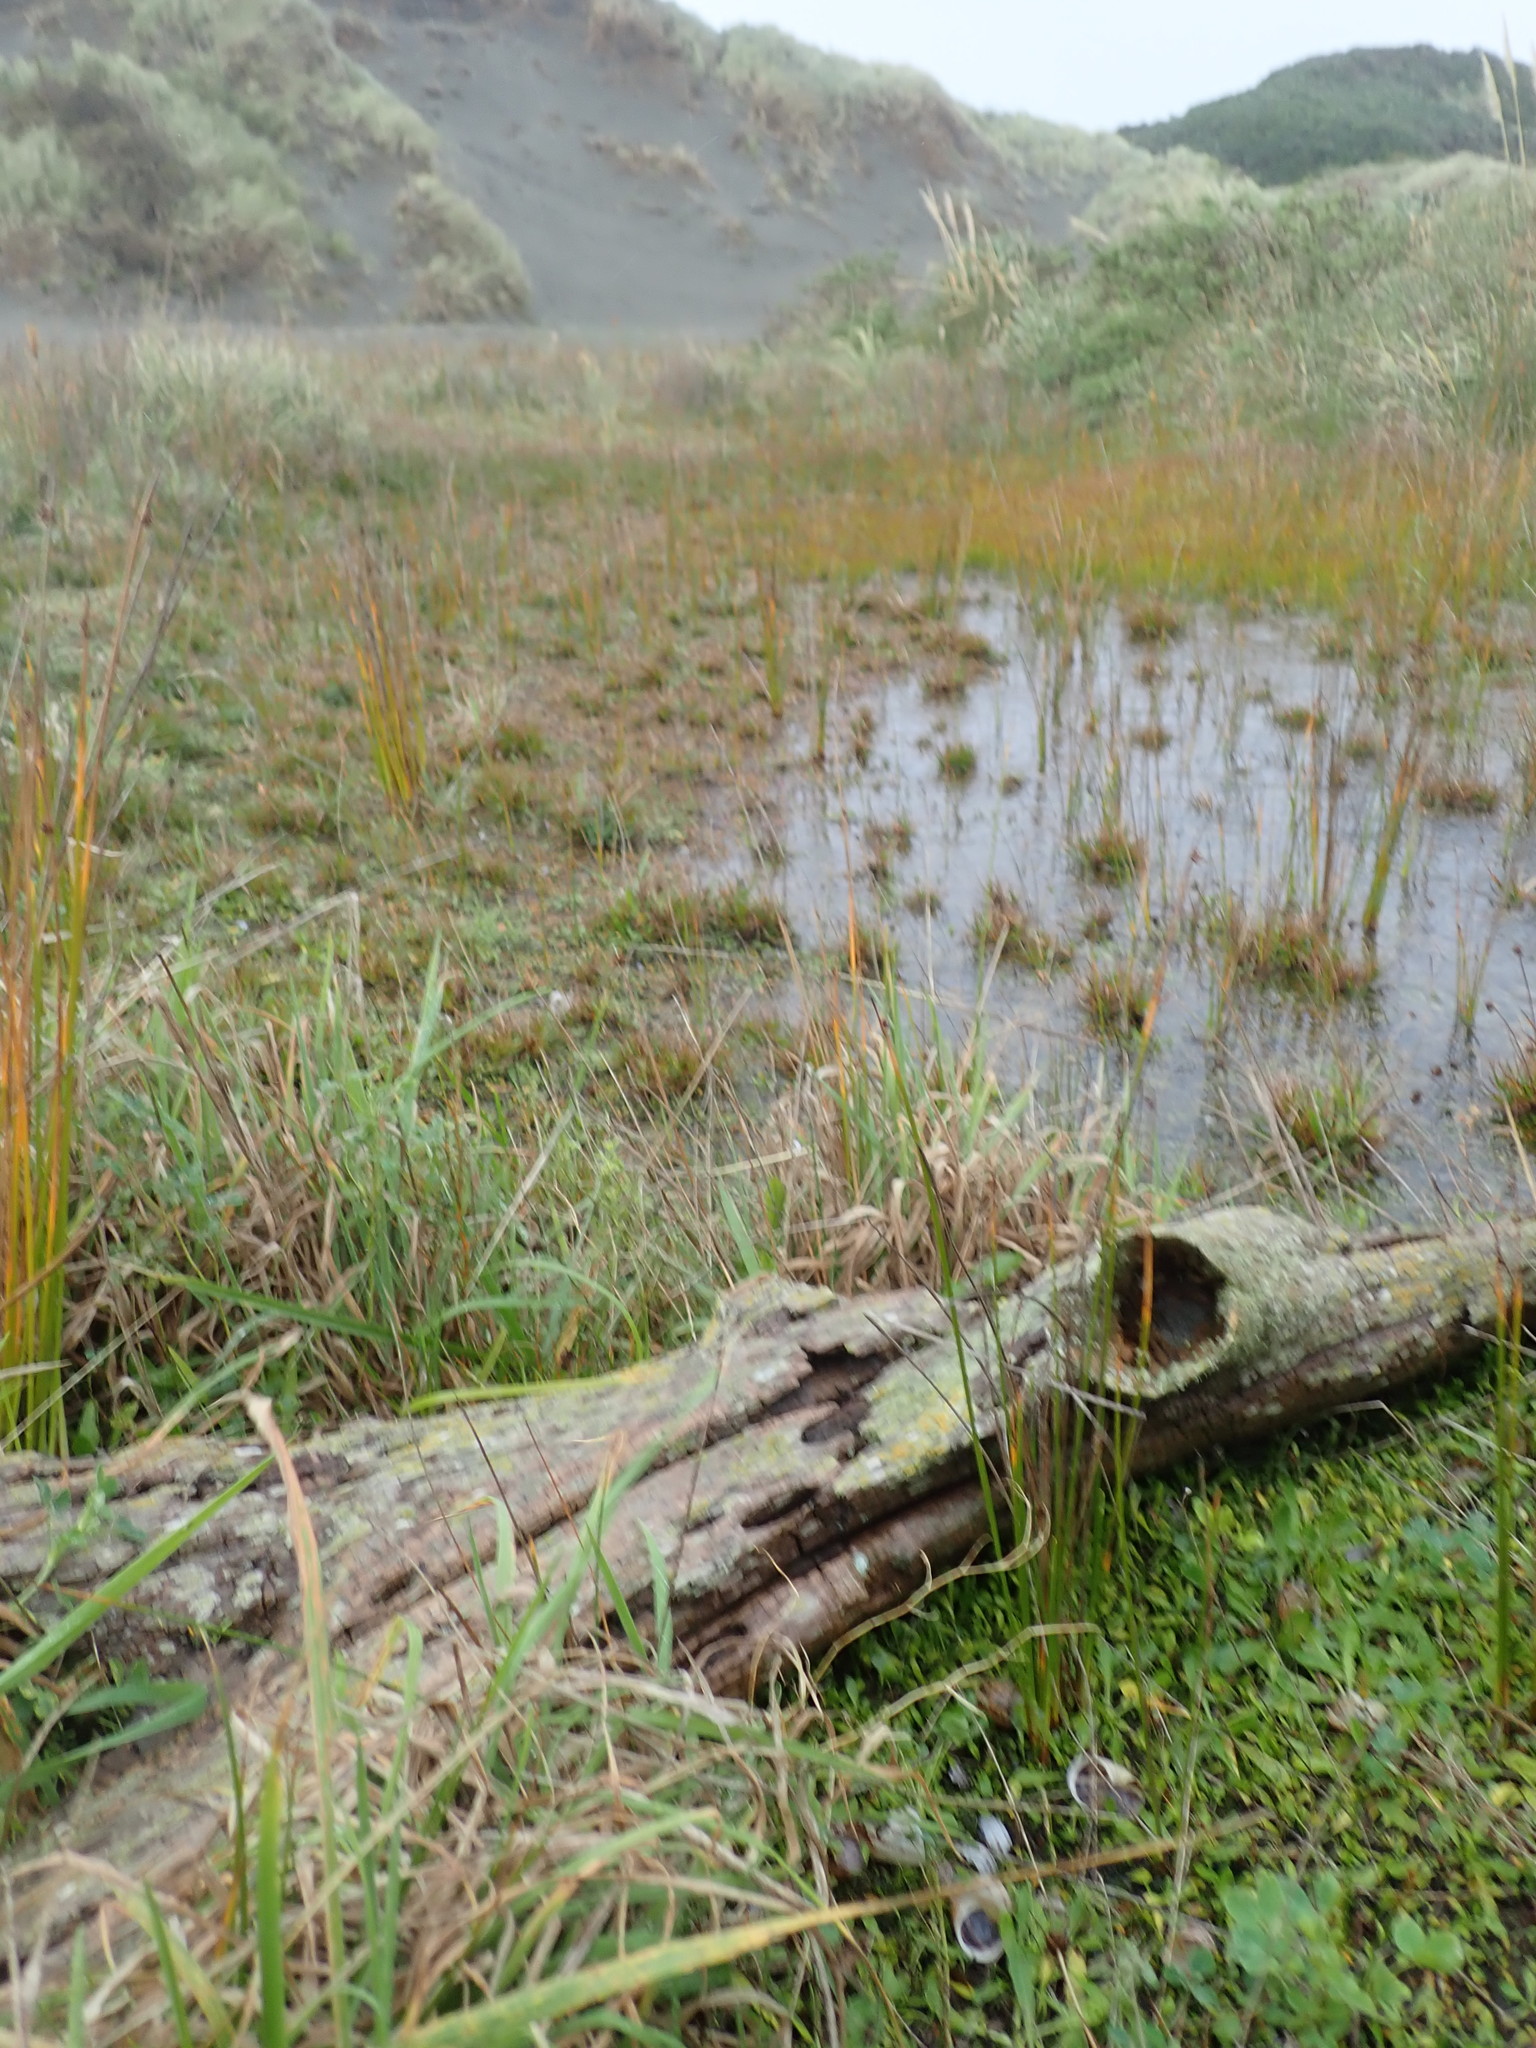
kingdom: Animalia
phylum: Arthropoda
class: Arachnida
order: Araneae
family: Porrhothelidae
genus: Porrhothele
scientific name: Porrhothele antipodiana
